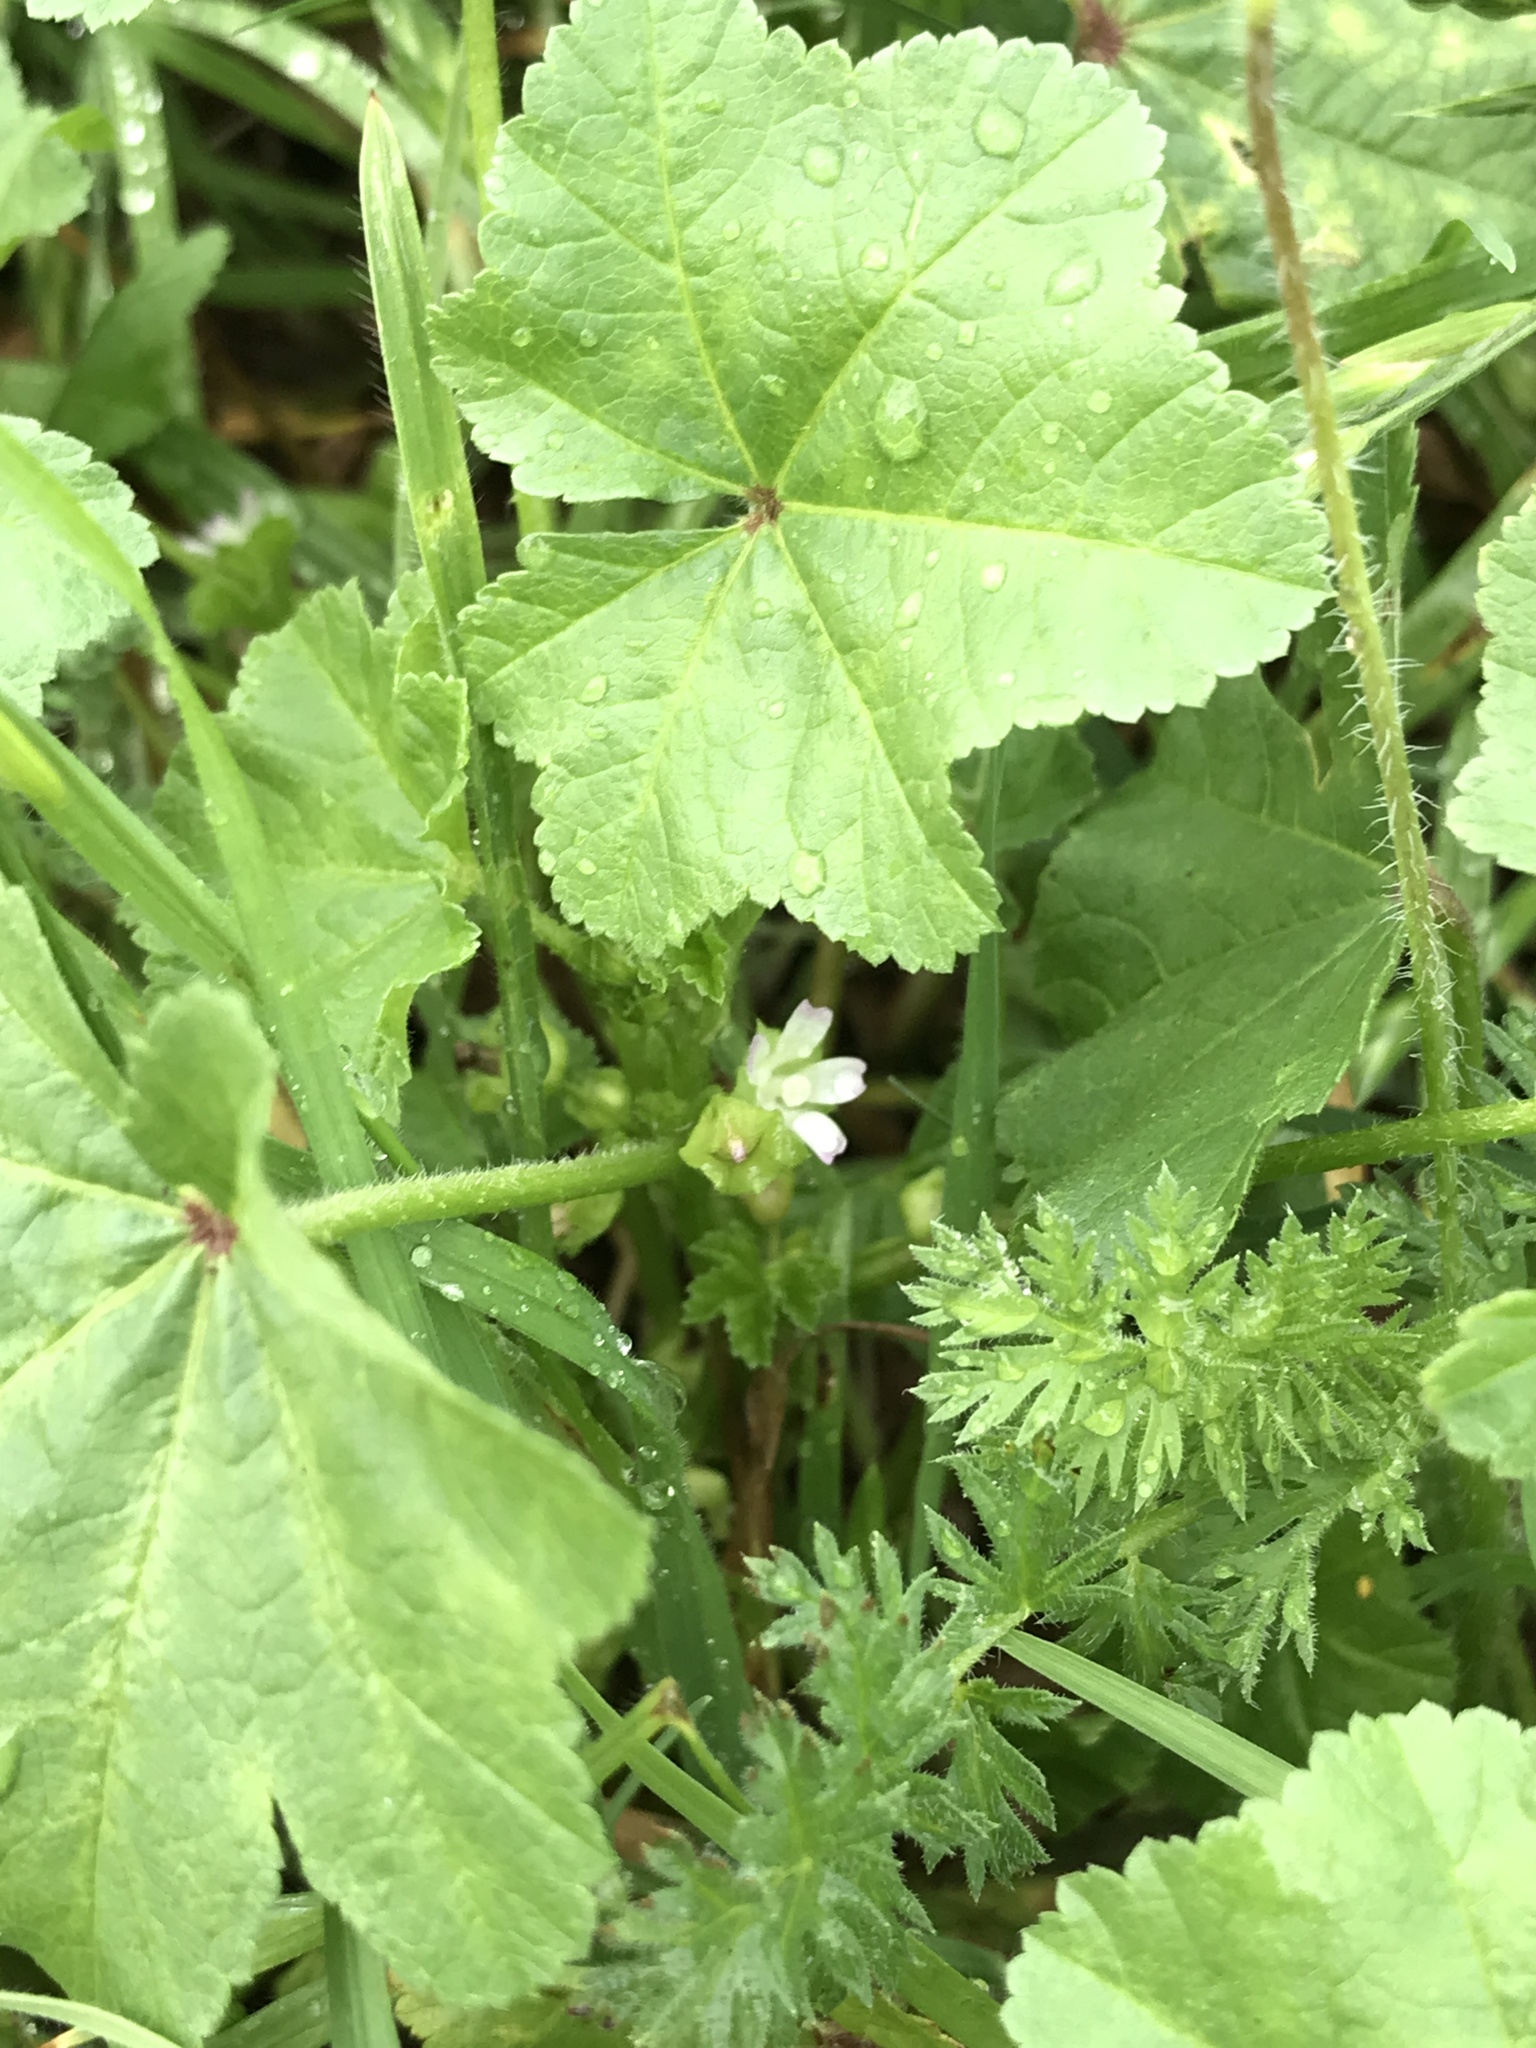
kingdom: Plantae
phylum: Tracheophyta
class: Magnoliopsida
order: Malvales
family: Malvaceae
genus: Malva
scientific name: Malva parviflora
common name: Least mallow
